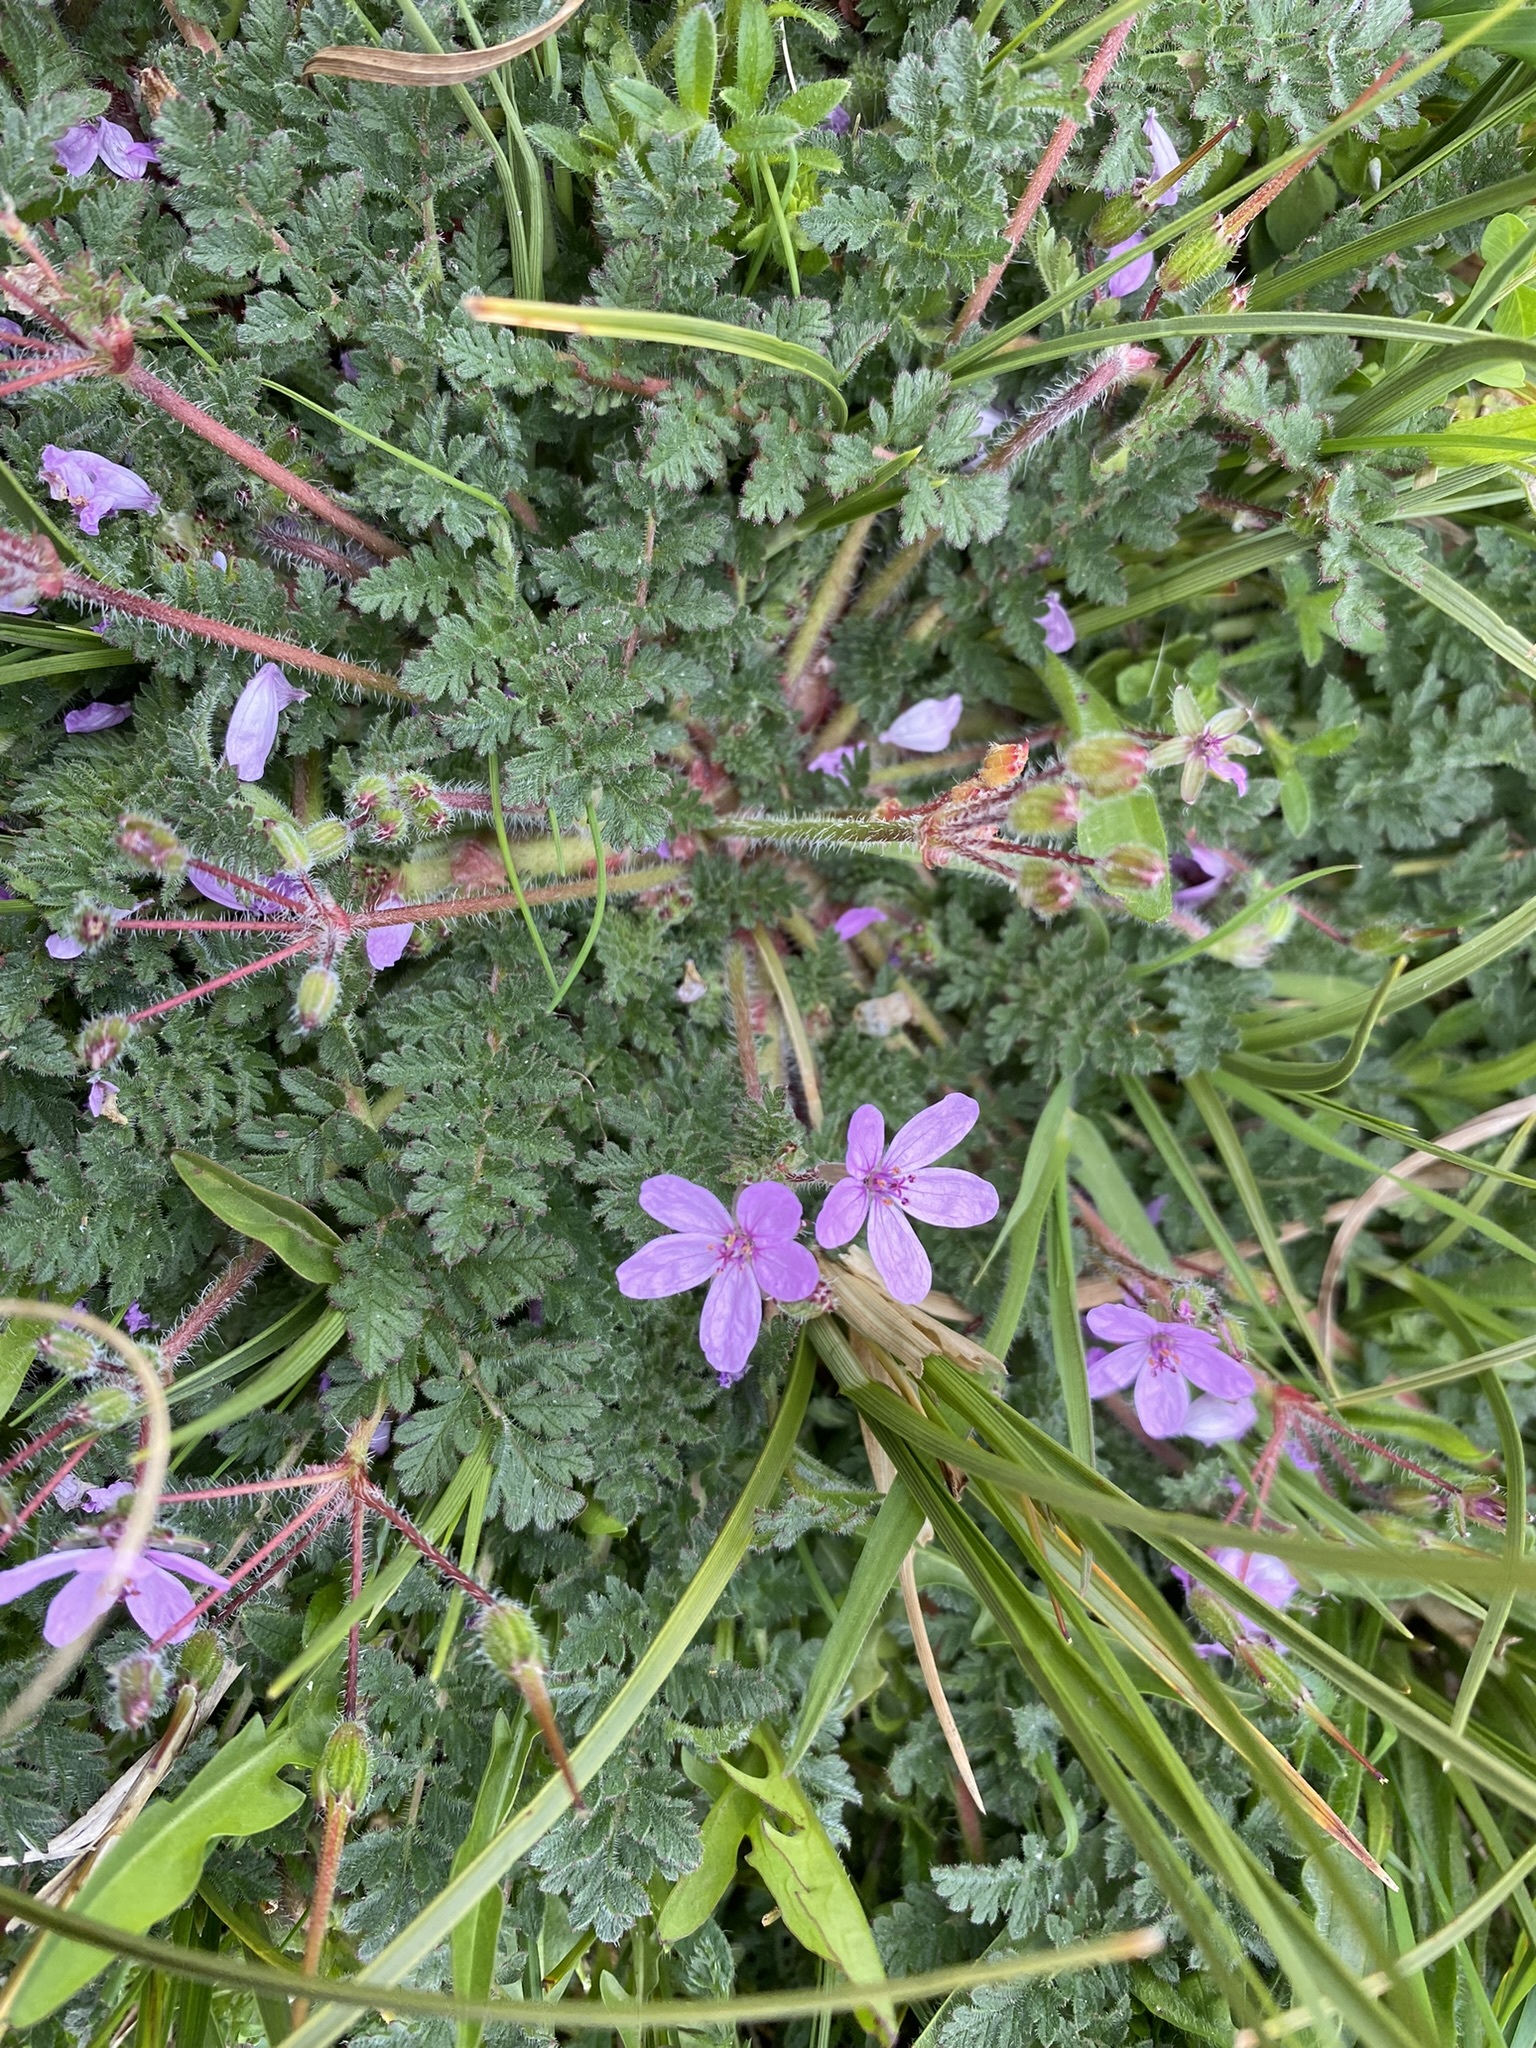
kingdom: Plantae
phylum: Tracheophyta
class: Magnoliopsida
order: Geraniales
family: Geraniaceae
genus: Erodium
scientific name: Erodium cicutarium
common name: Common stork's-bill
